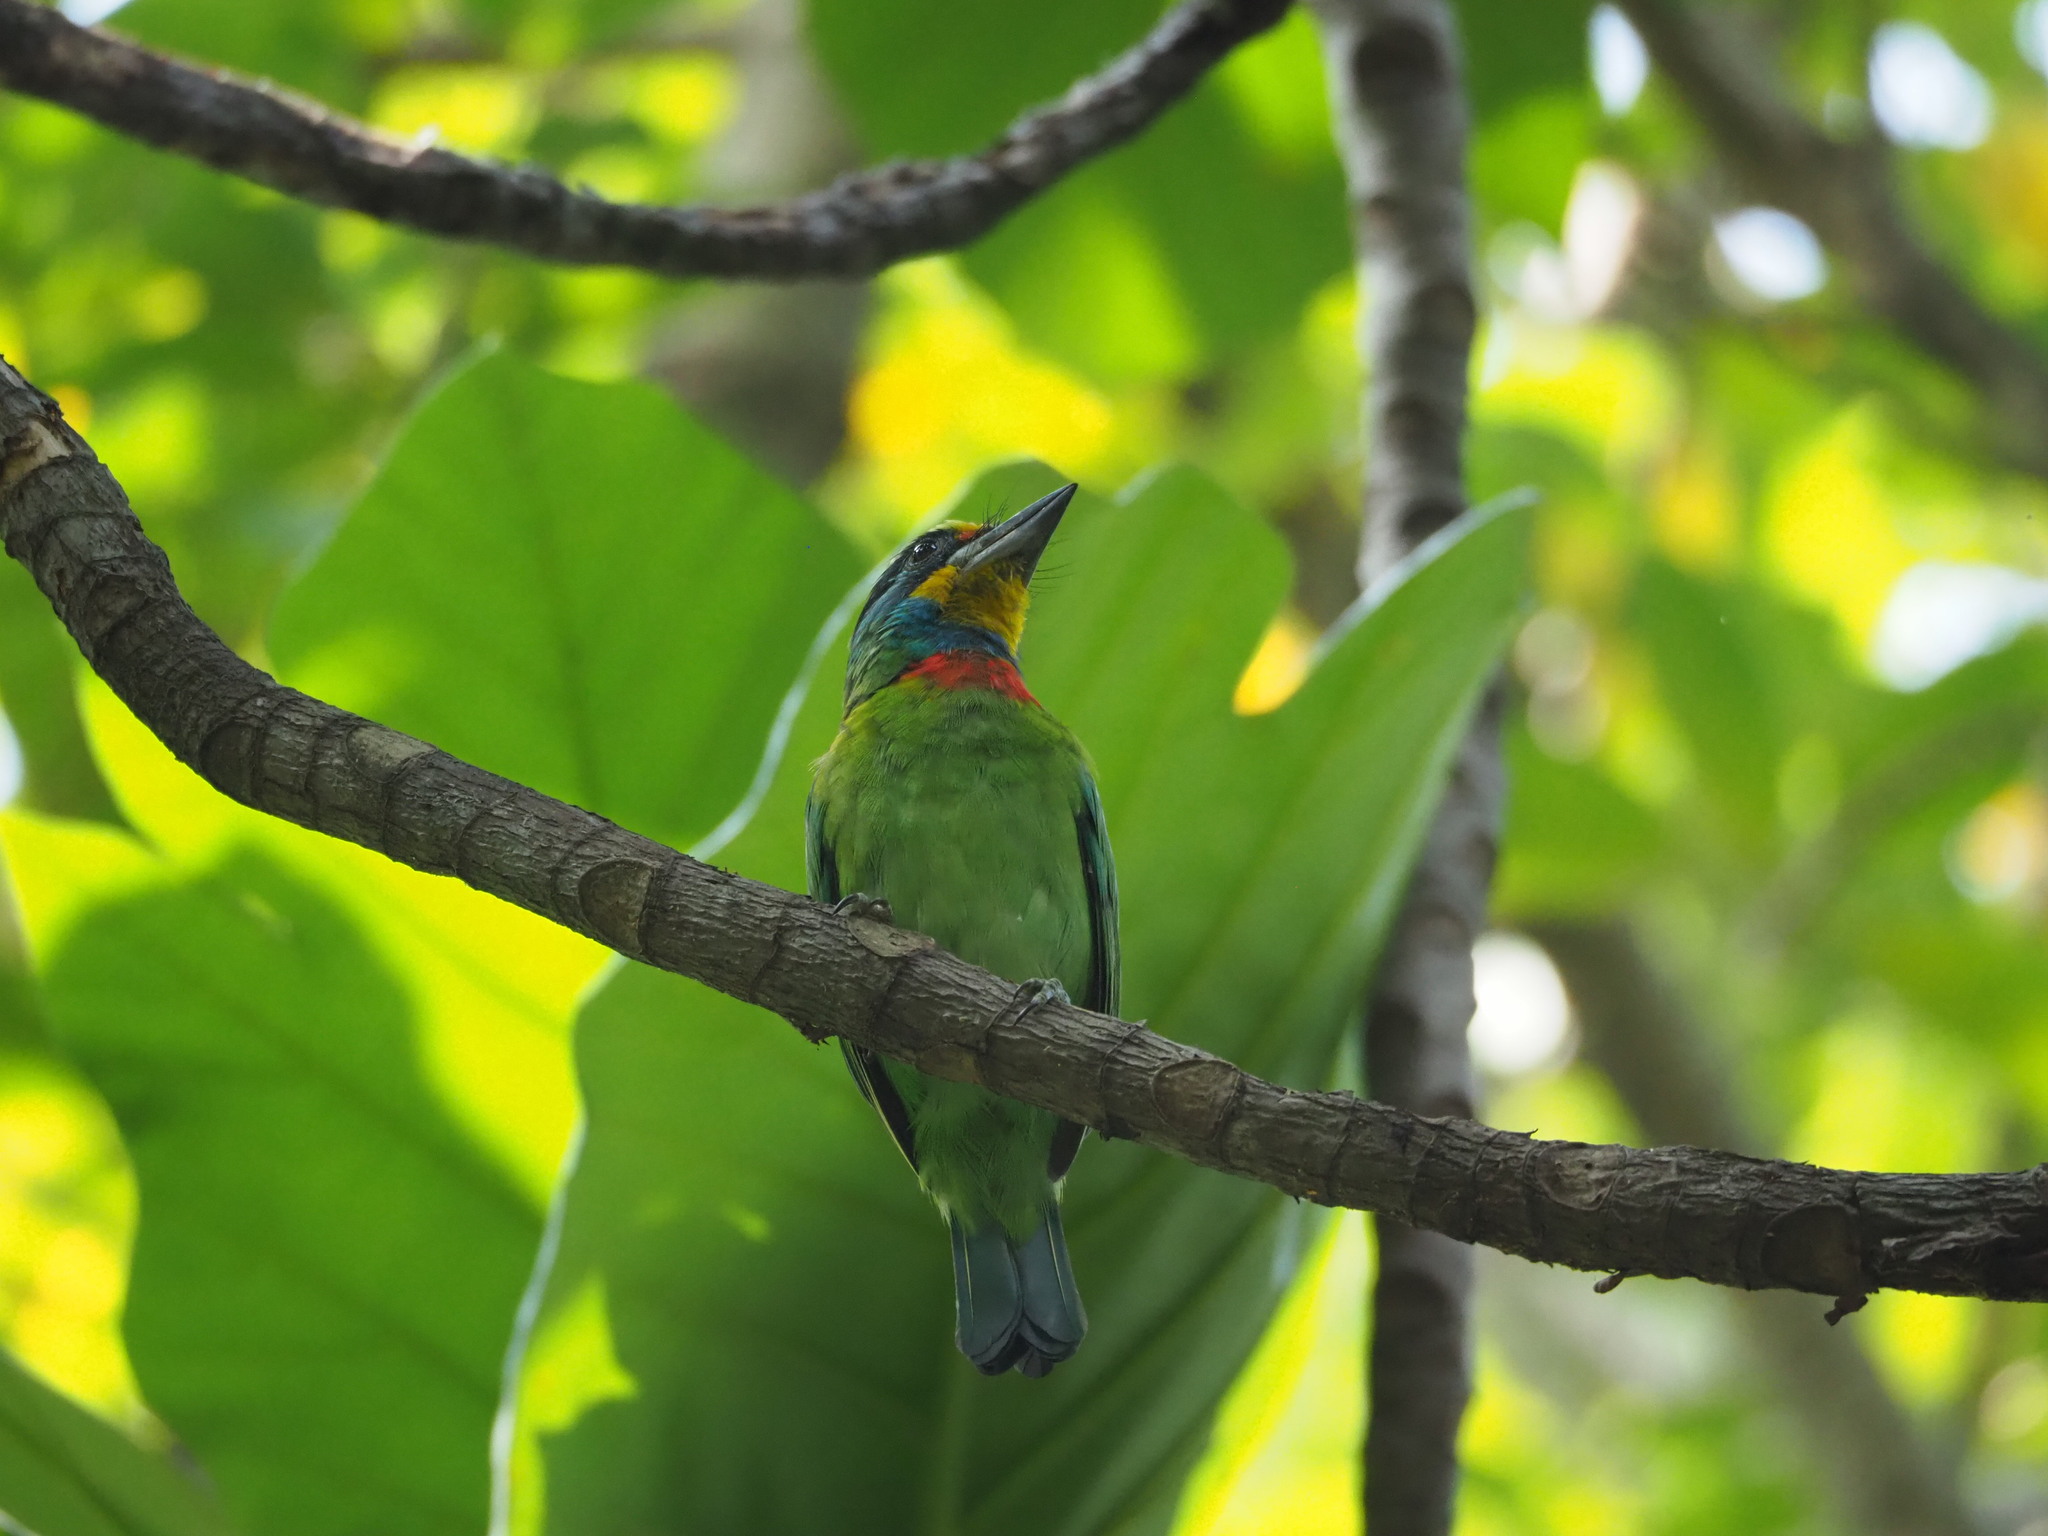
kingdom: Animalia
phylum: Chordata
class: Aves
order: Piciformes
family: Megalaimidae
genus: Psilopogon
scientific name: Psilopogon nuchalis
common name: Taiwan barbet
